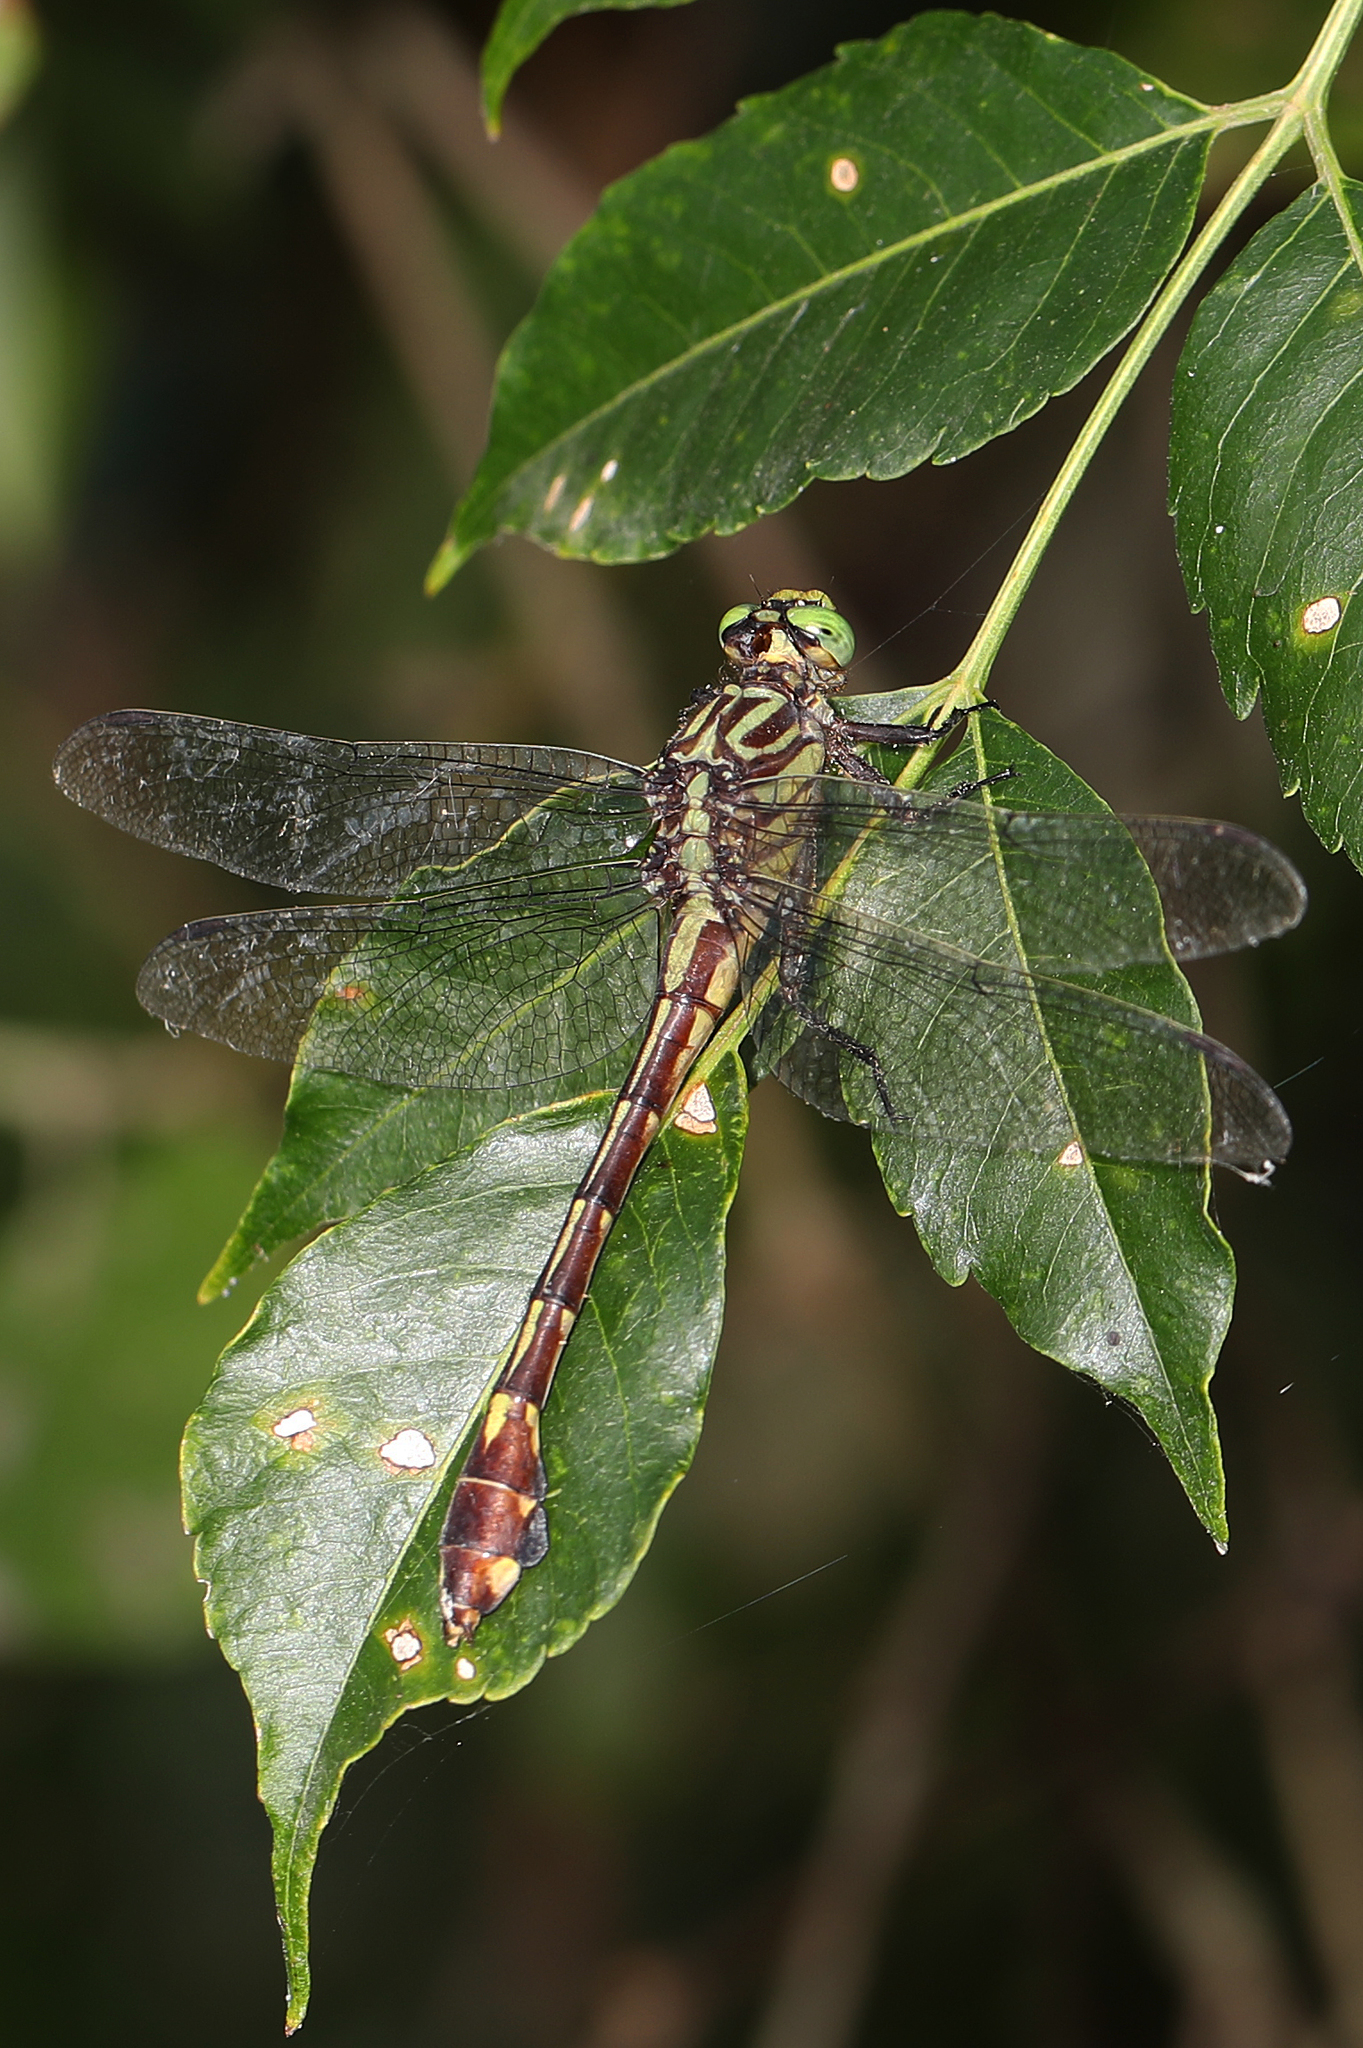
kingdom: Animalia
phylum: Arthropoda
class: Insecta
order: Odonata
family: Gomphidae
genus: Gomphurus
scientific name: Gomphurus vastus
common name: Cobra clubtail
